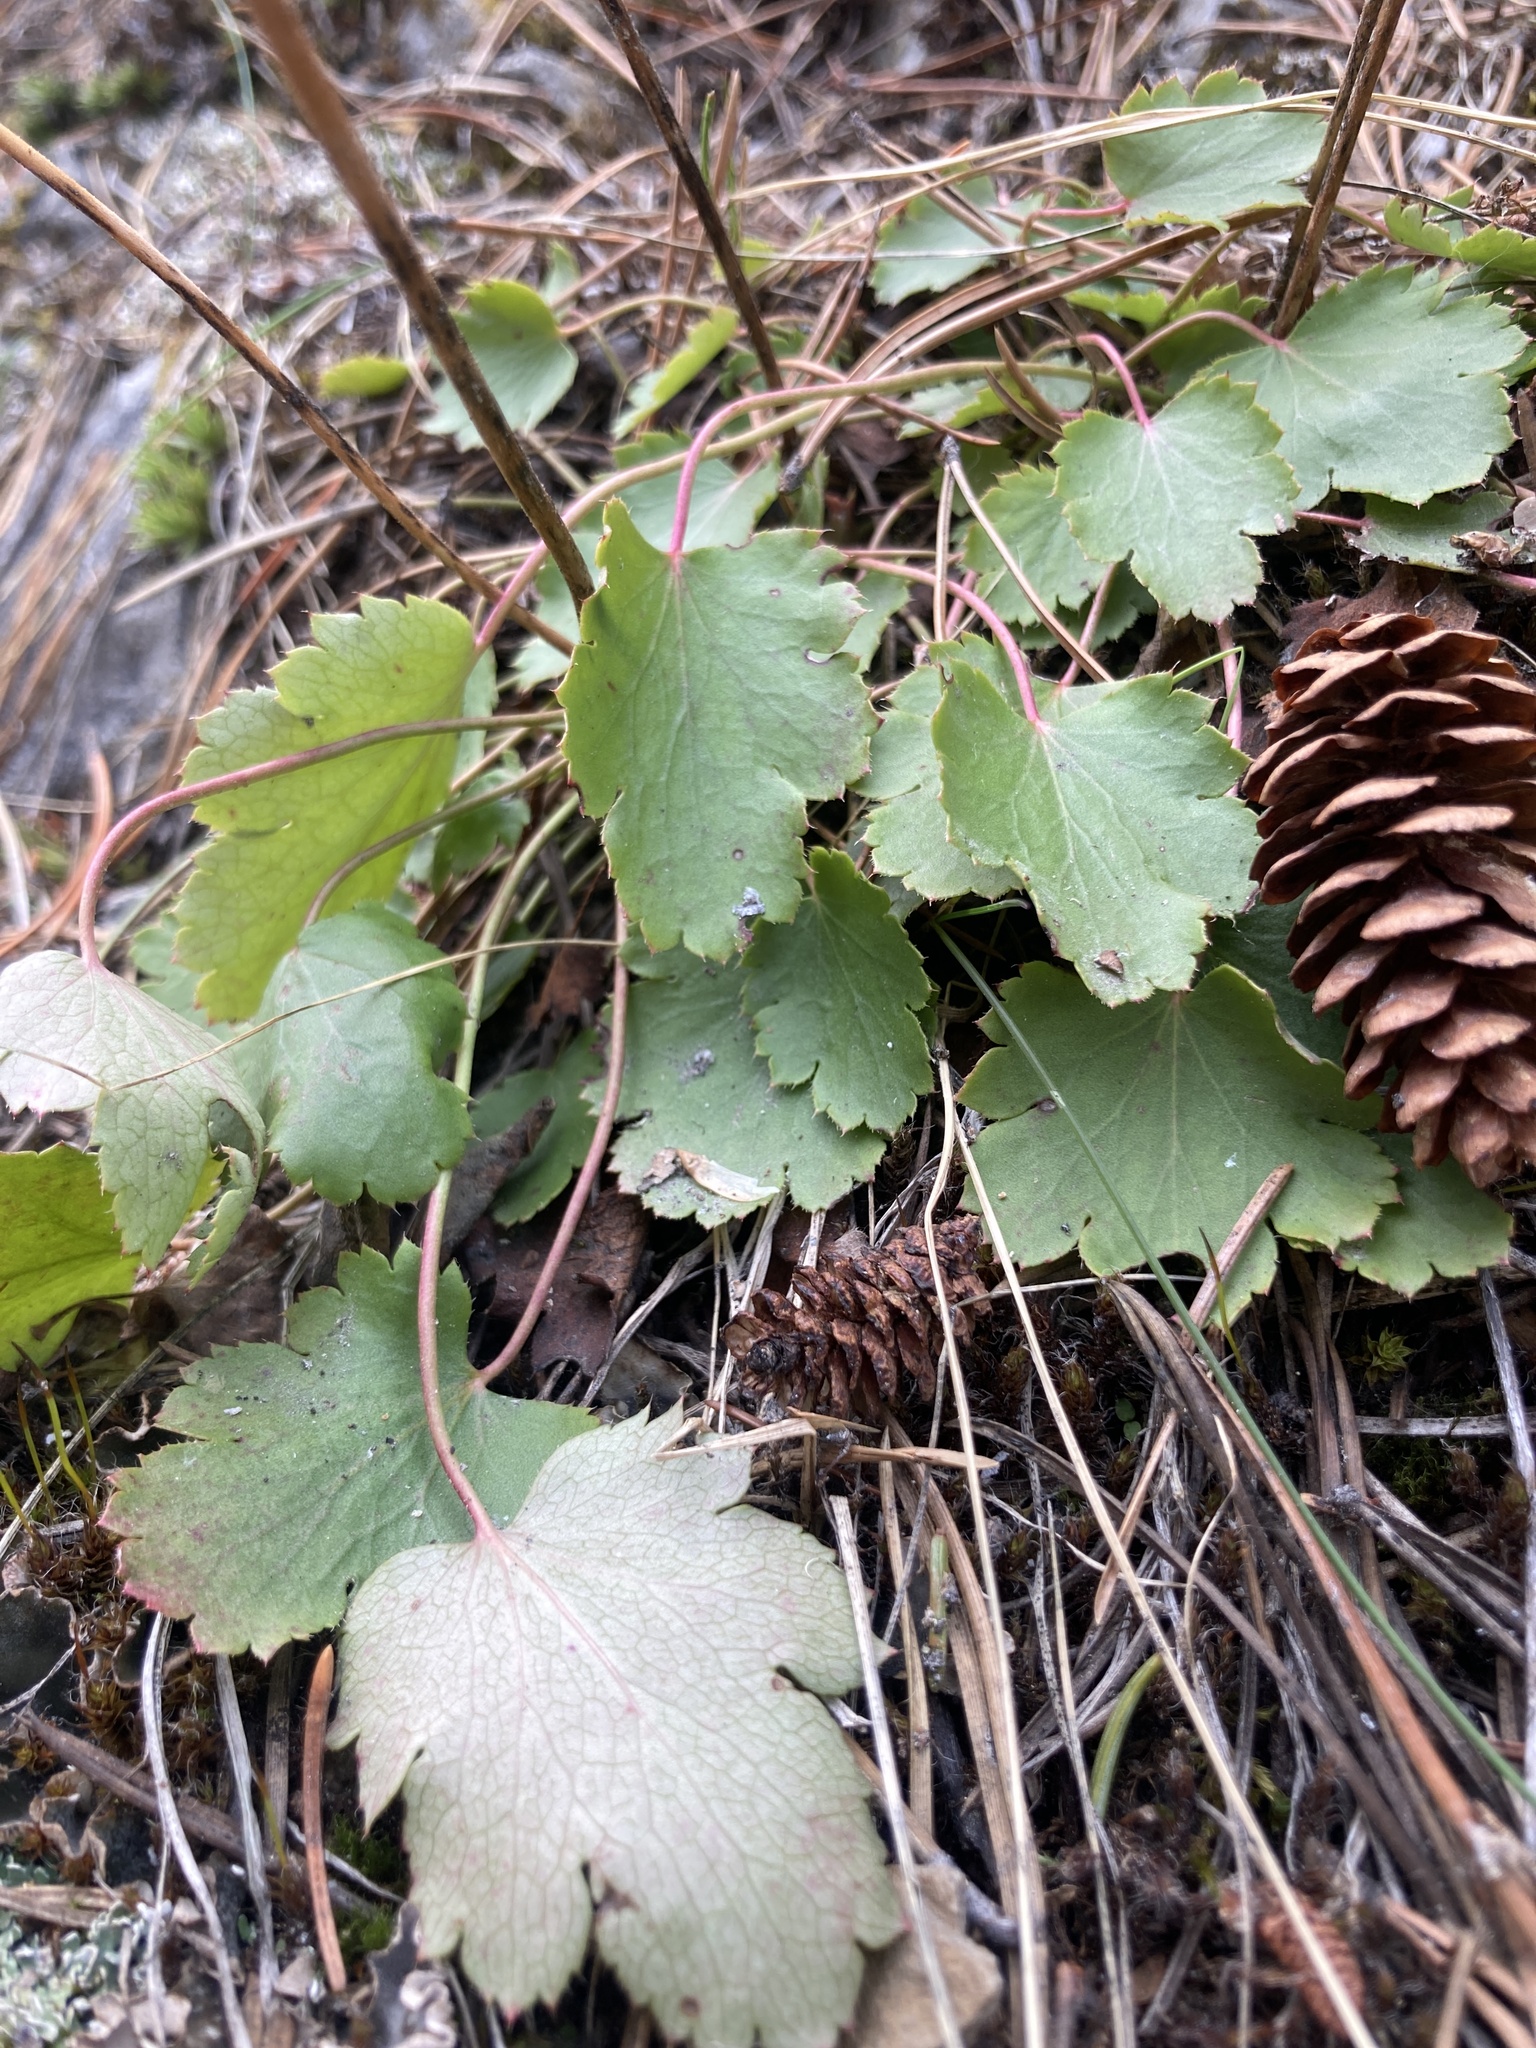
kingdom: Plantae
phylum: Tracheophyta
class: Magnoliopsida
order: Saxifragales
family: Saxifragaceae
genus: Heuchera
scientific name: Heuchera cylindrica
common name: Mat alumroot
